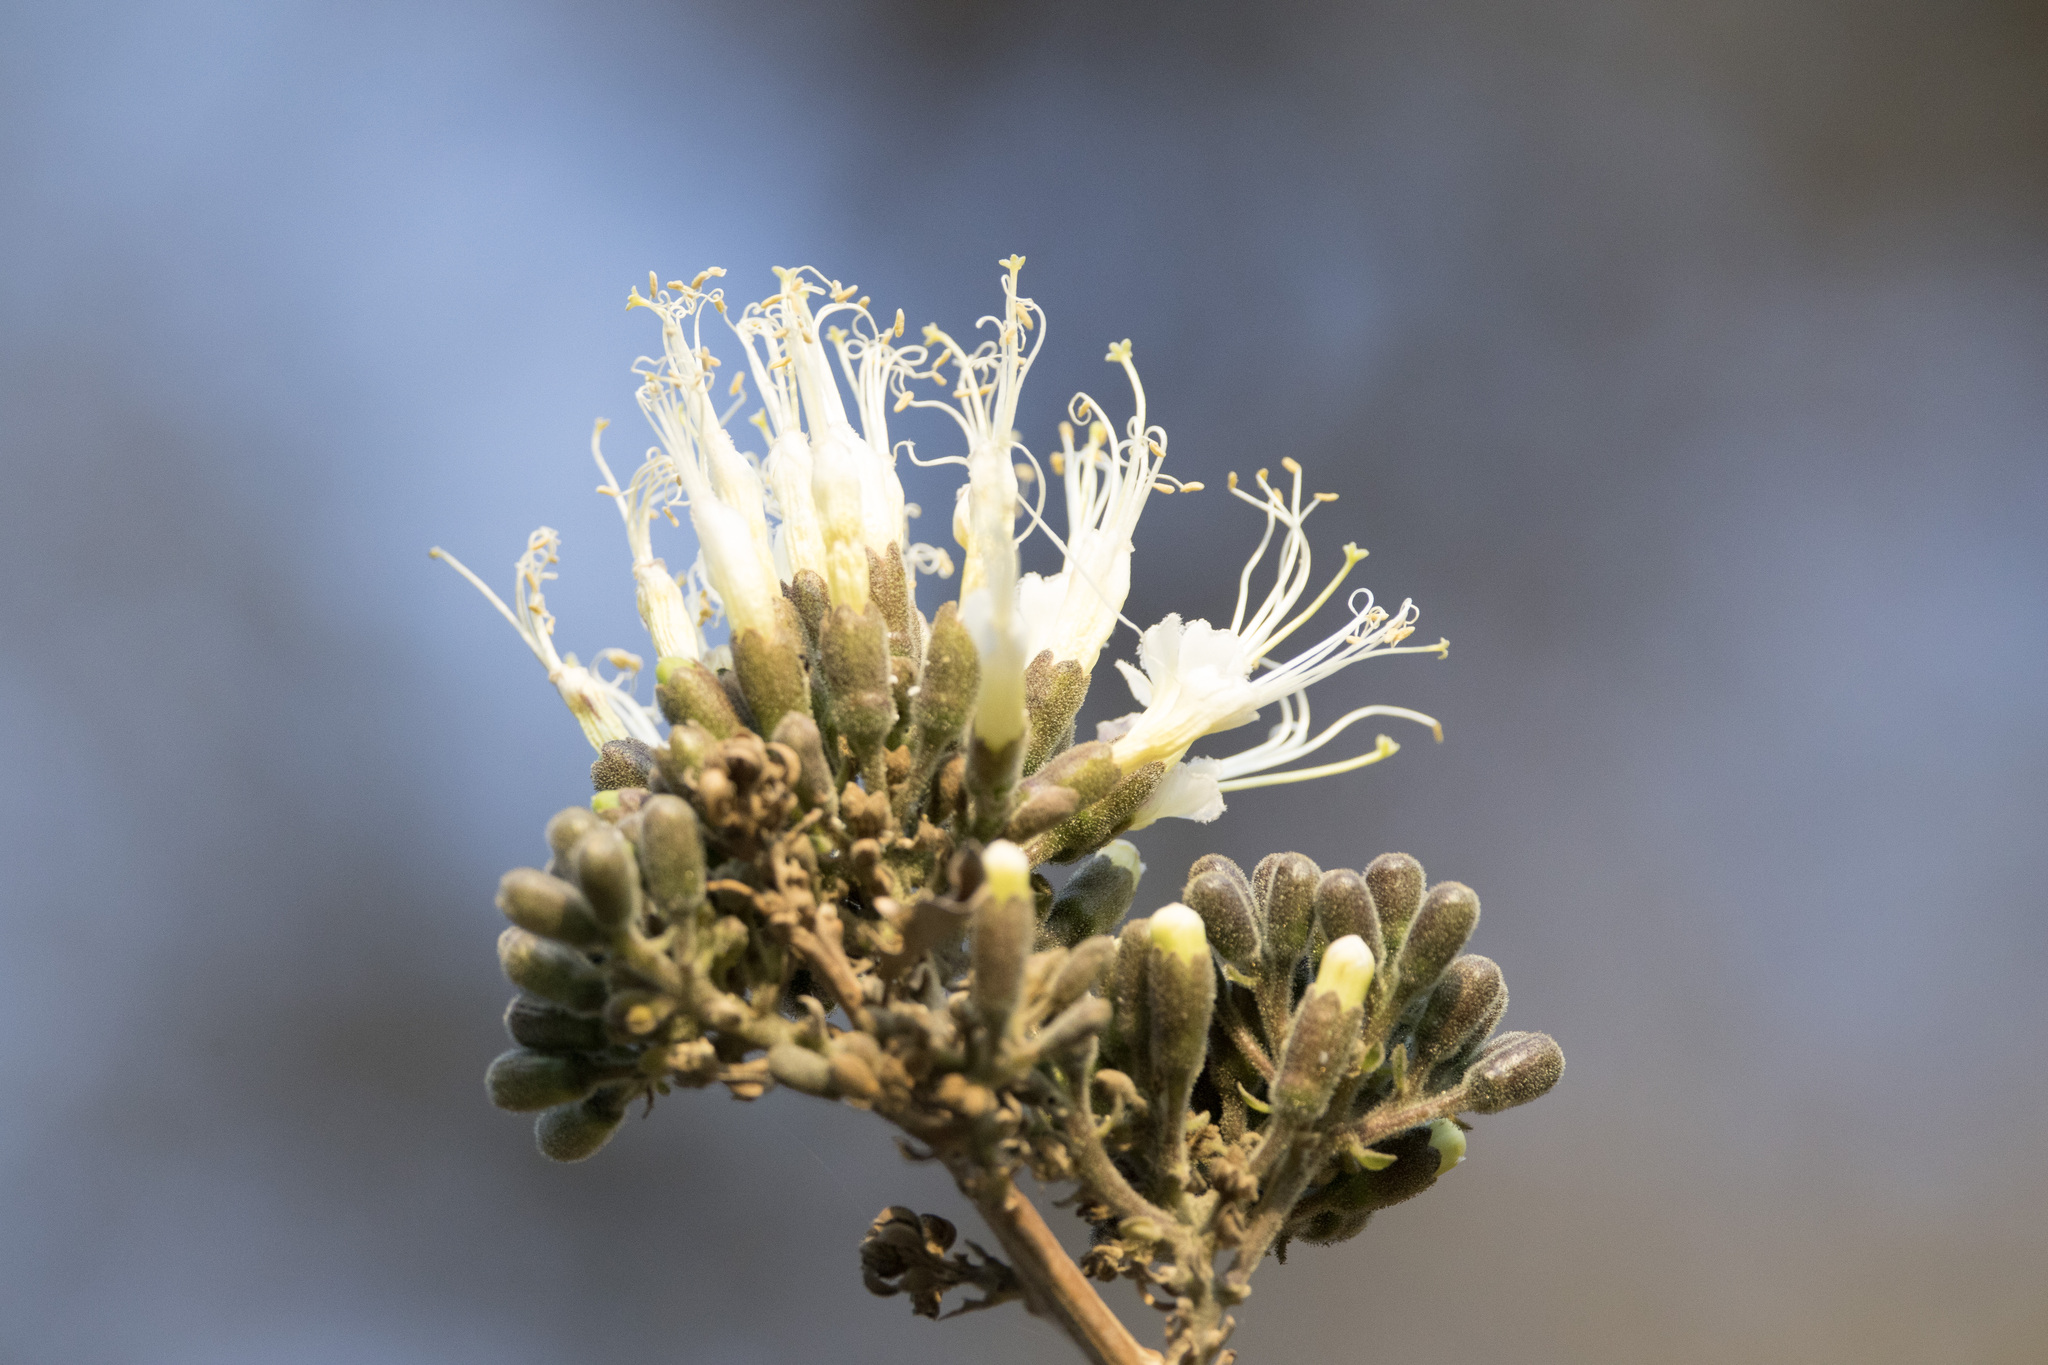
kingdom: Plantae
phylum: Tracheophyta
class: Magnoliopsida
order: Ericales
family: Polemoniaceae
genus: Cantua
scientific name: Cantua dendritica
